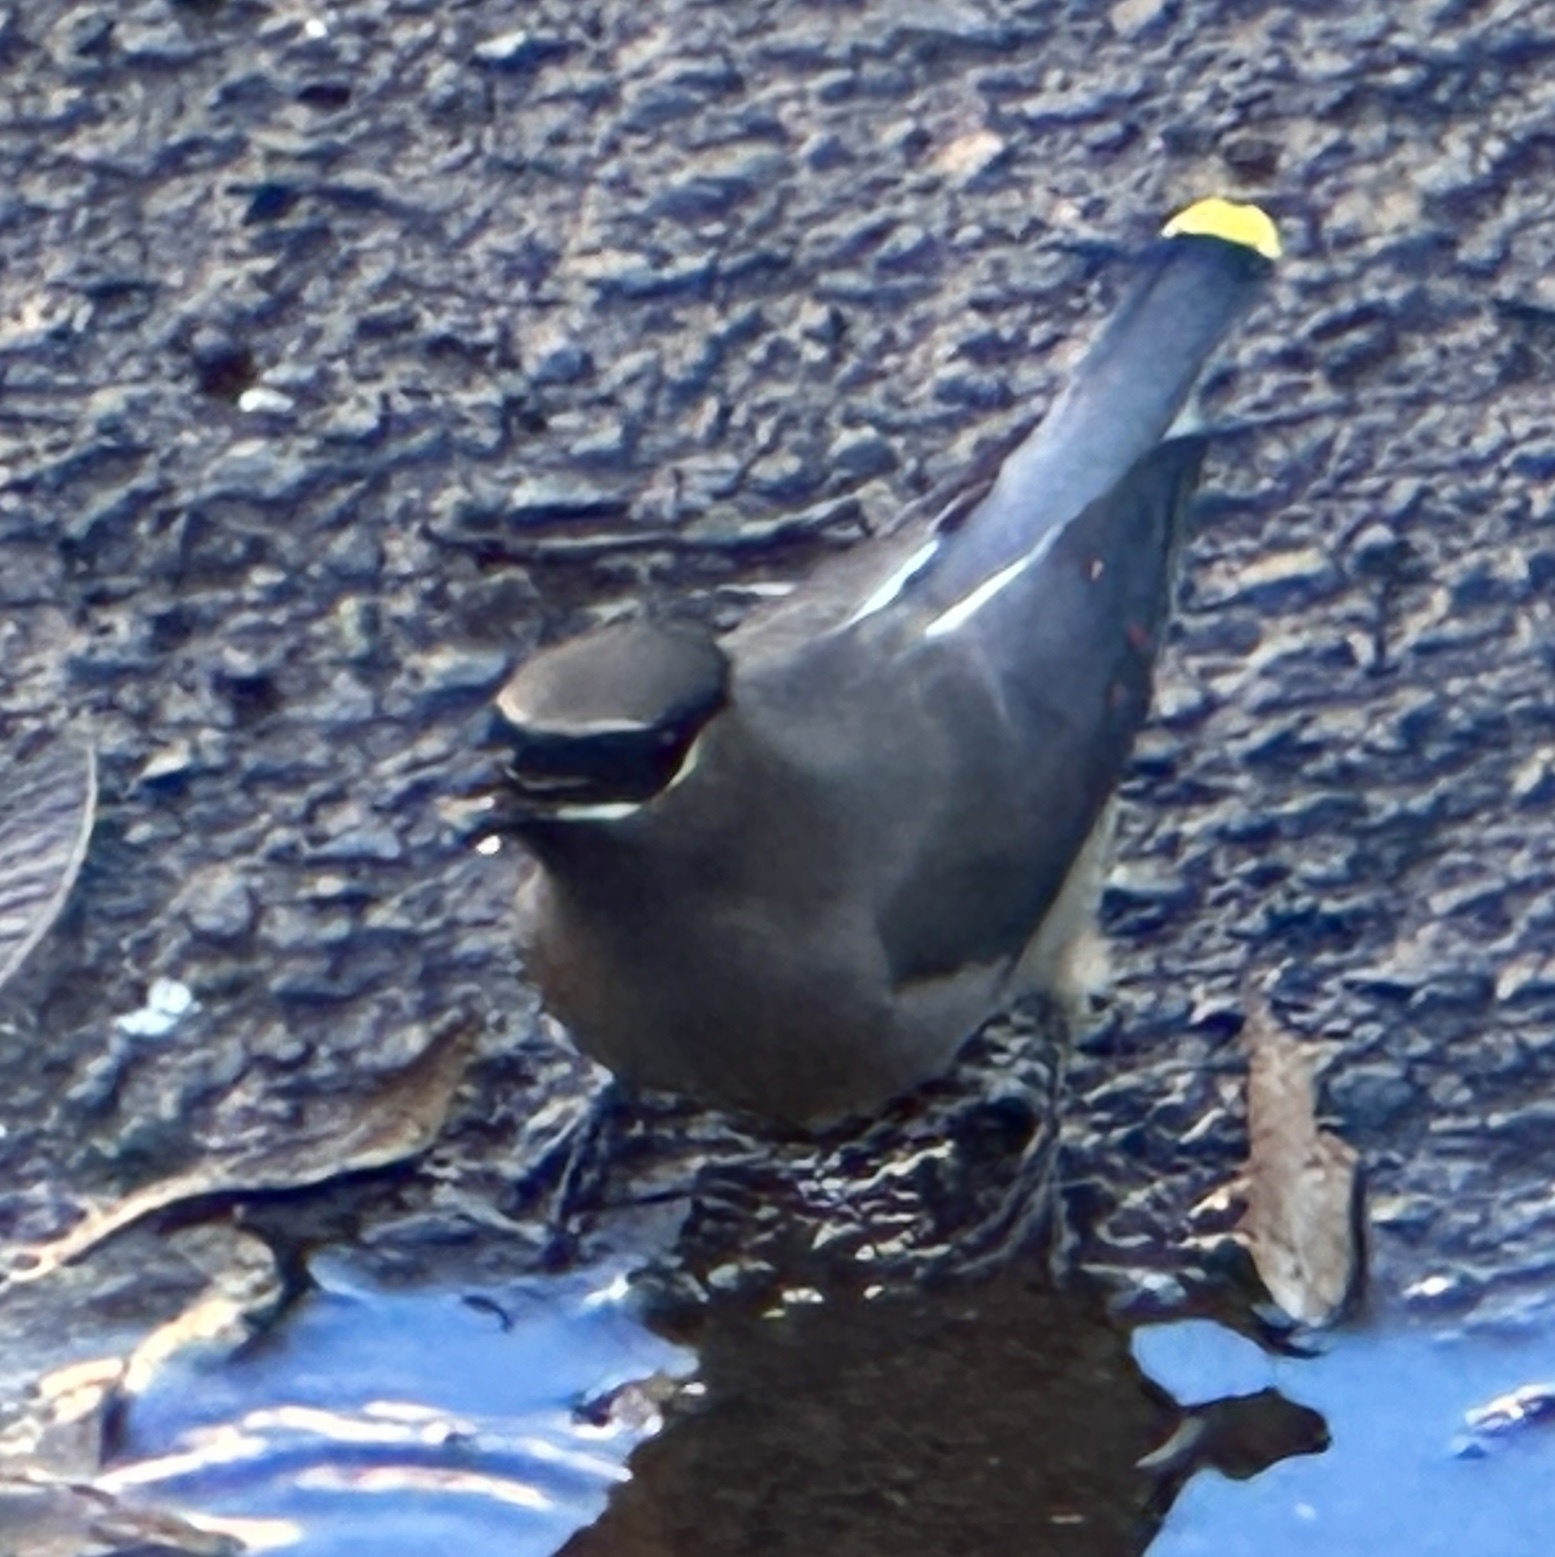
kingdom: Animalia
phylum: Chordata
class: Aves
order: Passeriformes
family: Bombycillidae
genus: Bombycilla
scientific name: Bombycilla cedrorum
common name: Cedar waxwing
